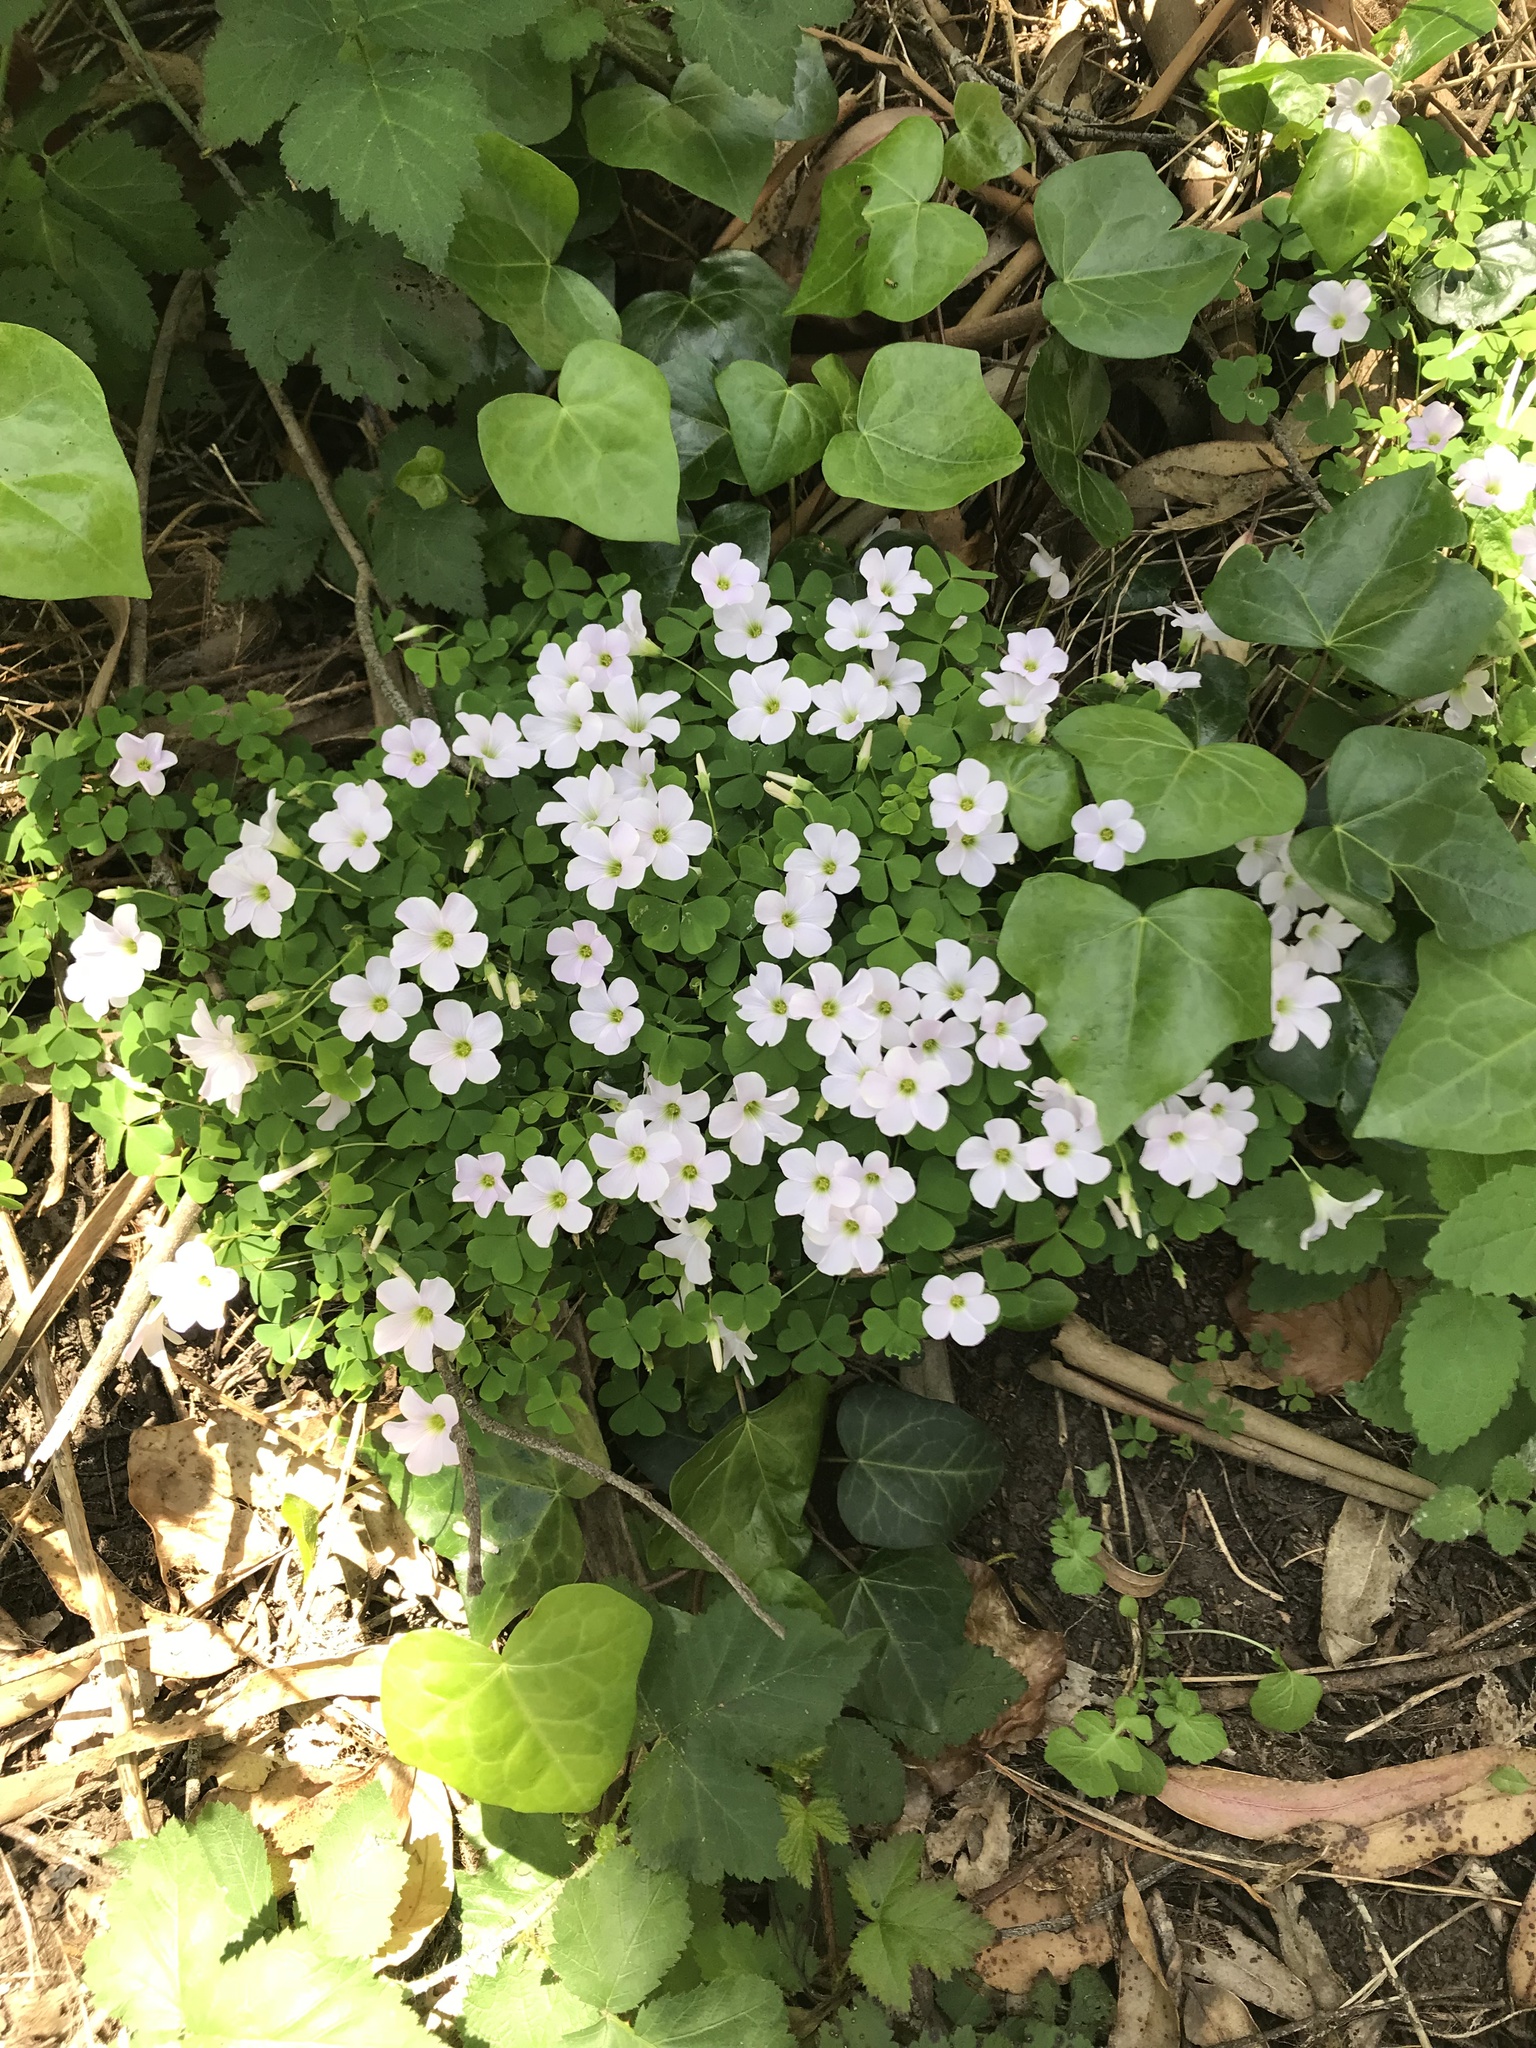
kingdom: Plantae
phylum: Tracheophyta
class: Magnoliopsida
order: Oxalidales
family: Oxalidaceae
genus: Oxalis
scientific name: Oxalis incarnata
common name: Pale pink-sorrel
